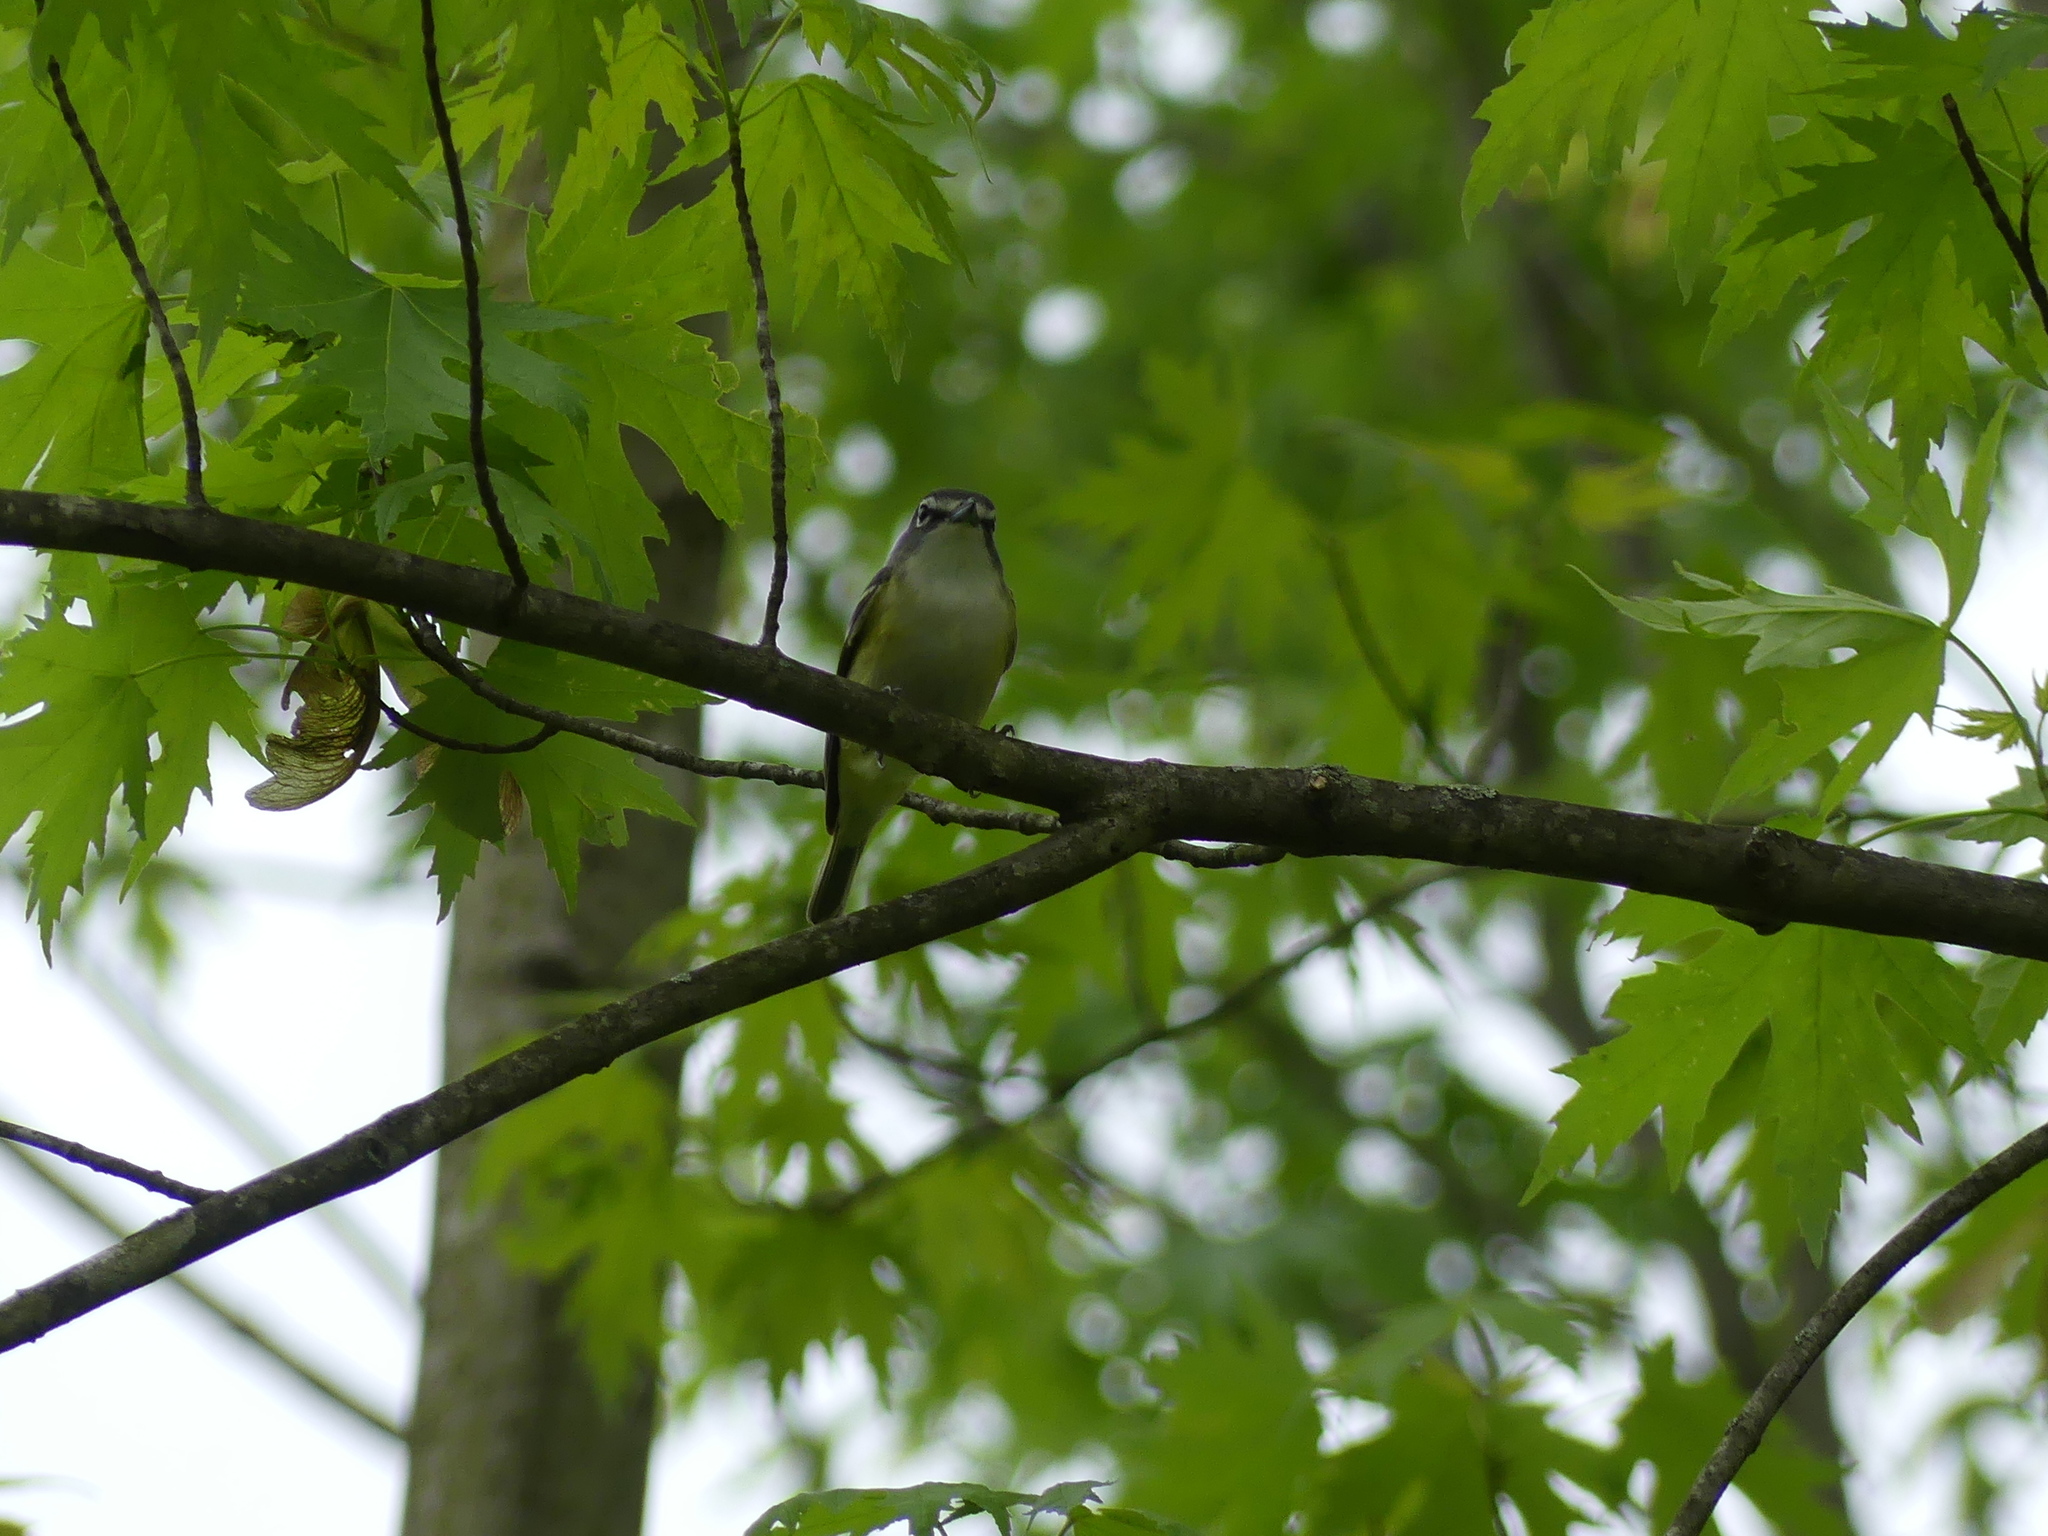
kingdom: Animalia
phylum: Chordata
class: Aves
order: Passeriformes
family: Vireonidae
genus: Vireo
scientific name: Vireo solitarius
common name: Blue-headed vireo
